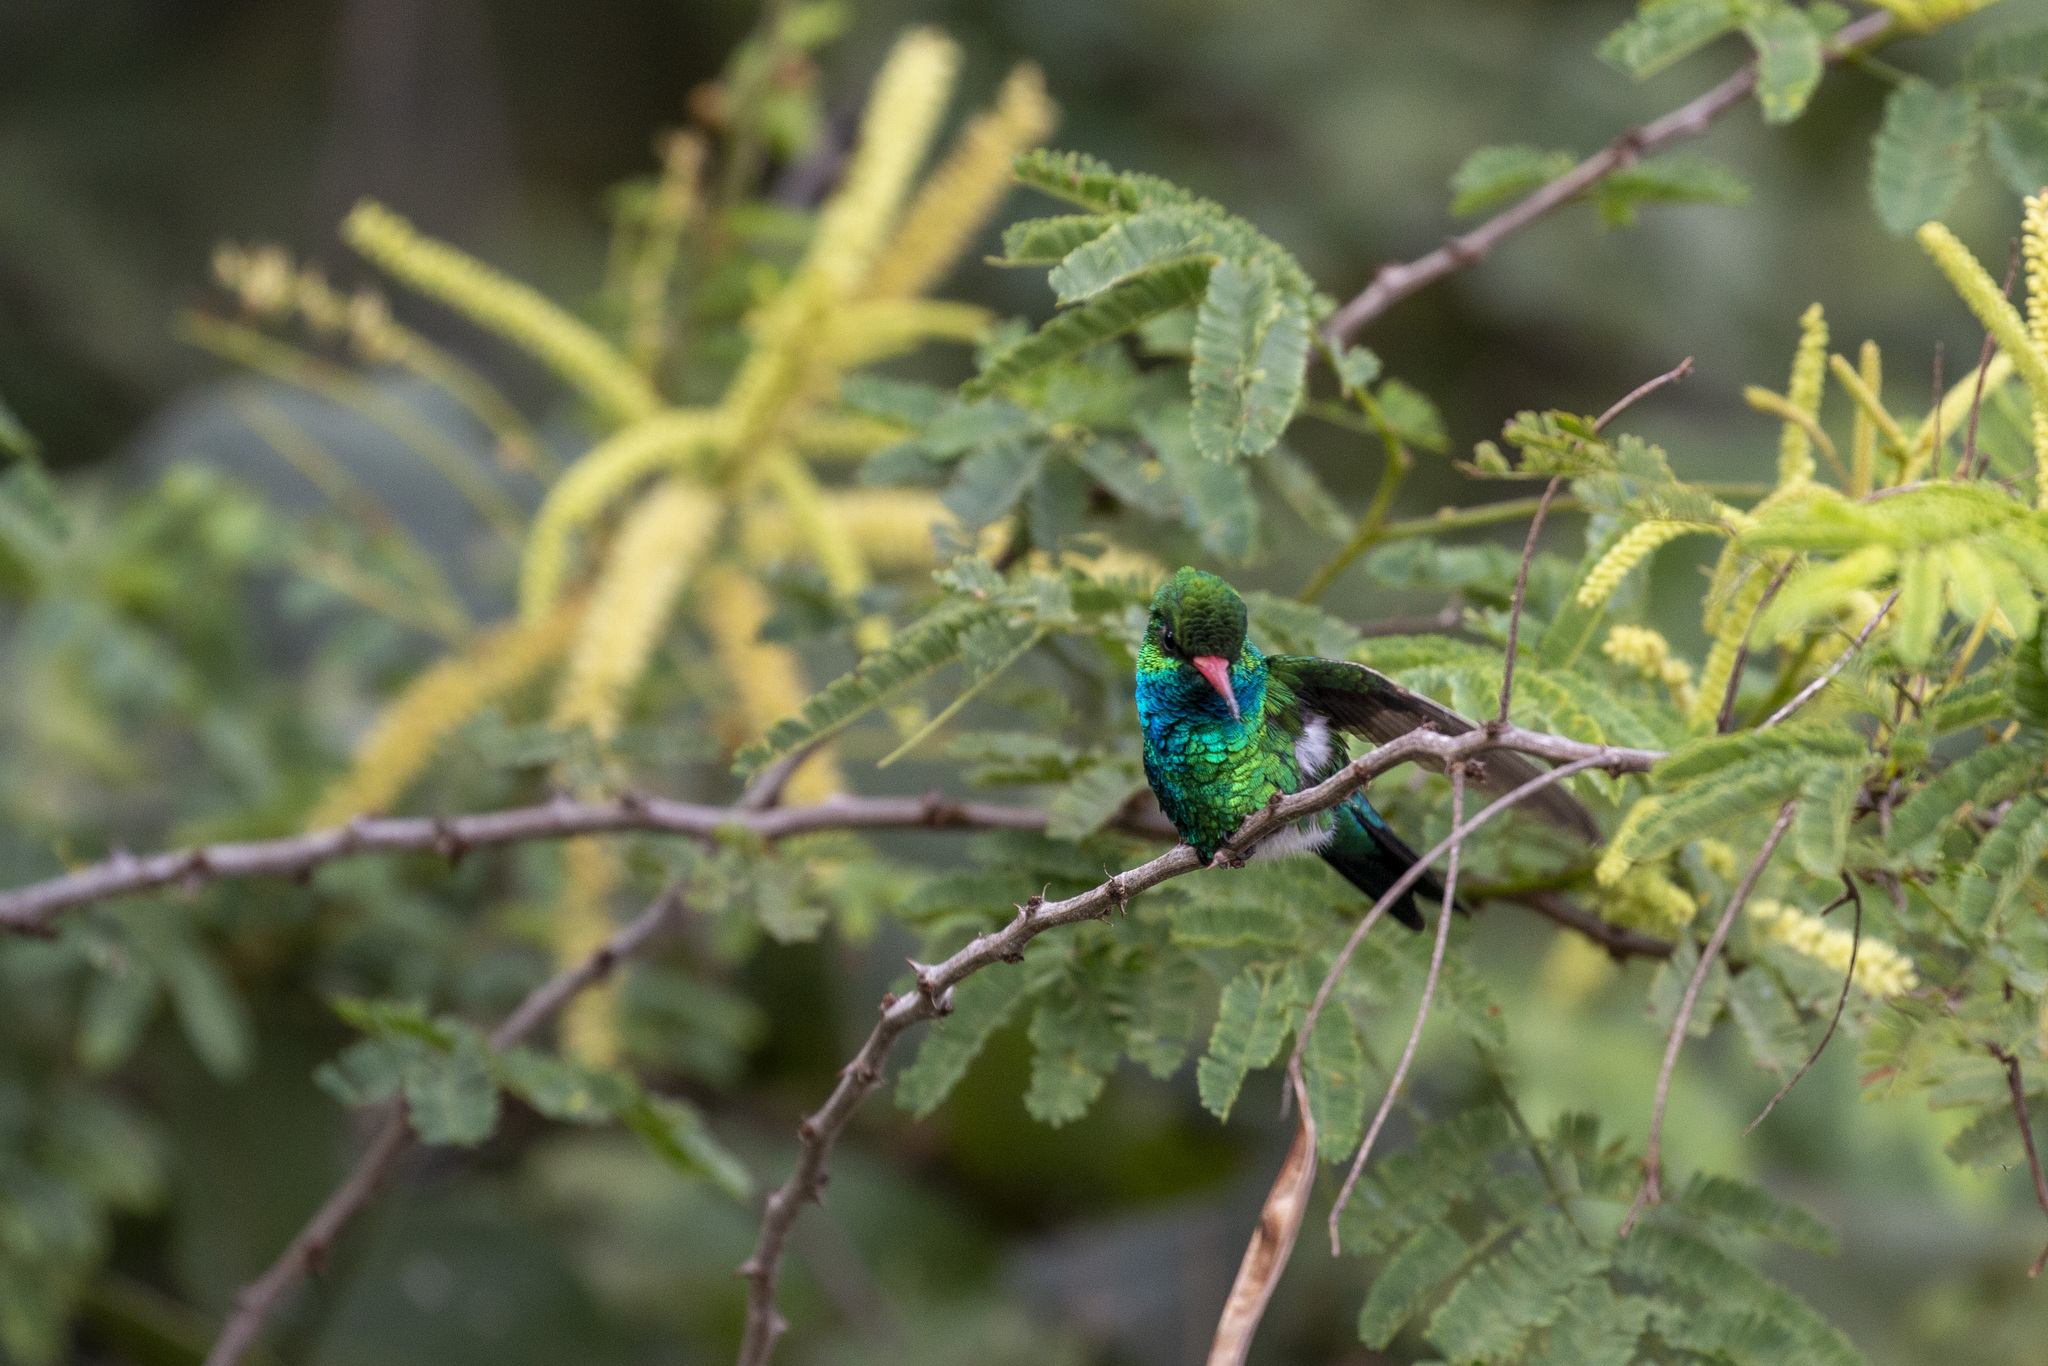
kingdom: Animalia
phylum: Chordata
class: Aves
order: Apodiformes
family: Trochilidae
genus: Chlorostilbon
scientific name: Chlorostilbon lucidus
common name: Glittering-bellied emerald
